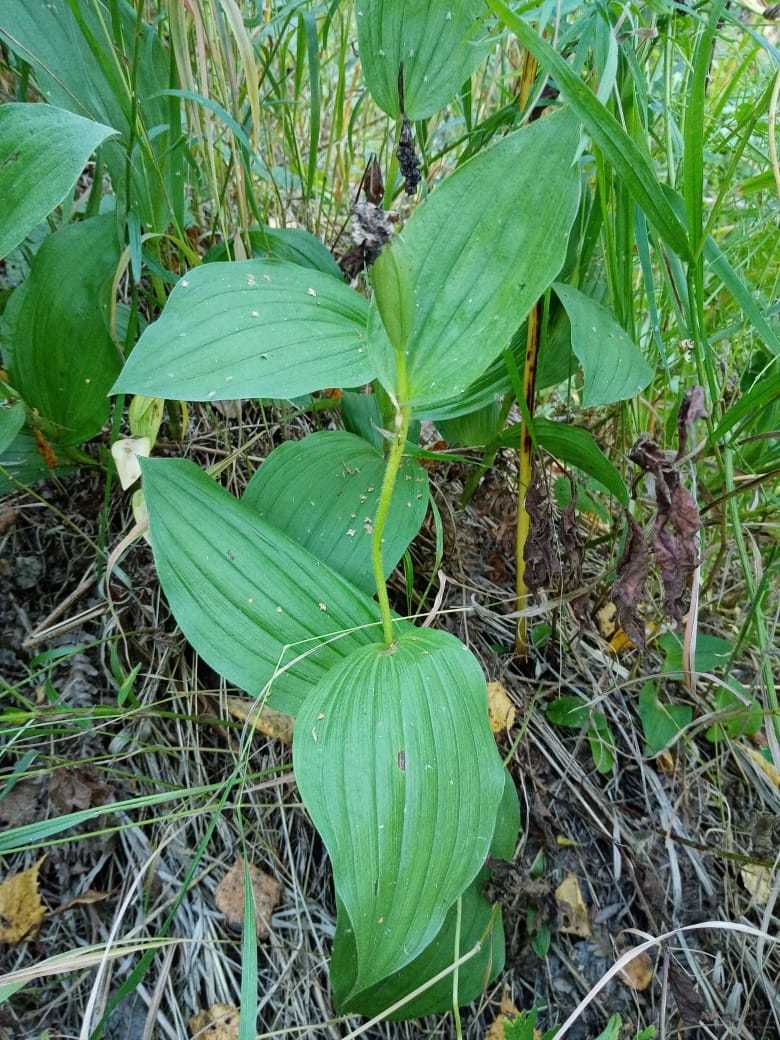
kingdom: Plantae
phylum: Tracheophyta
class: Liliopsida
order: Asparagales
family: Orchidaceae
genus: Cypripedium
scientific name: Cypripedium macranthos
